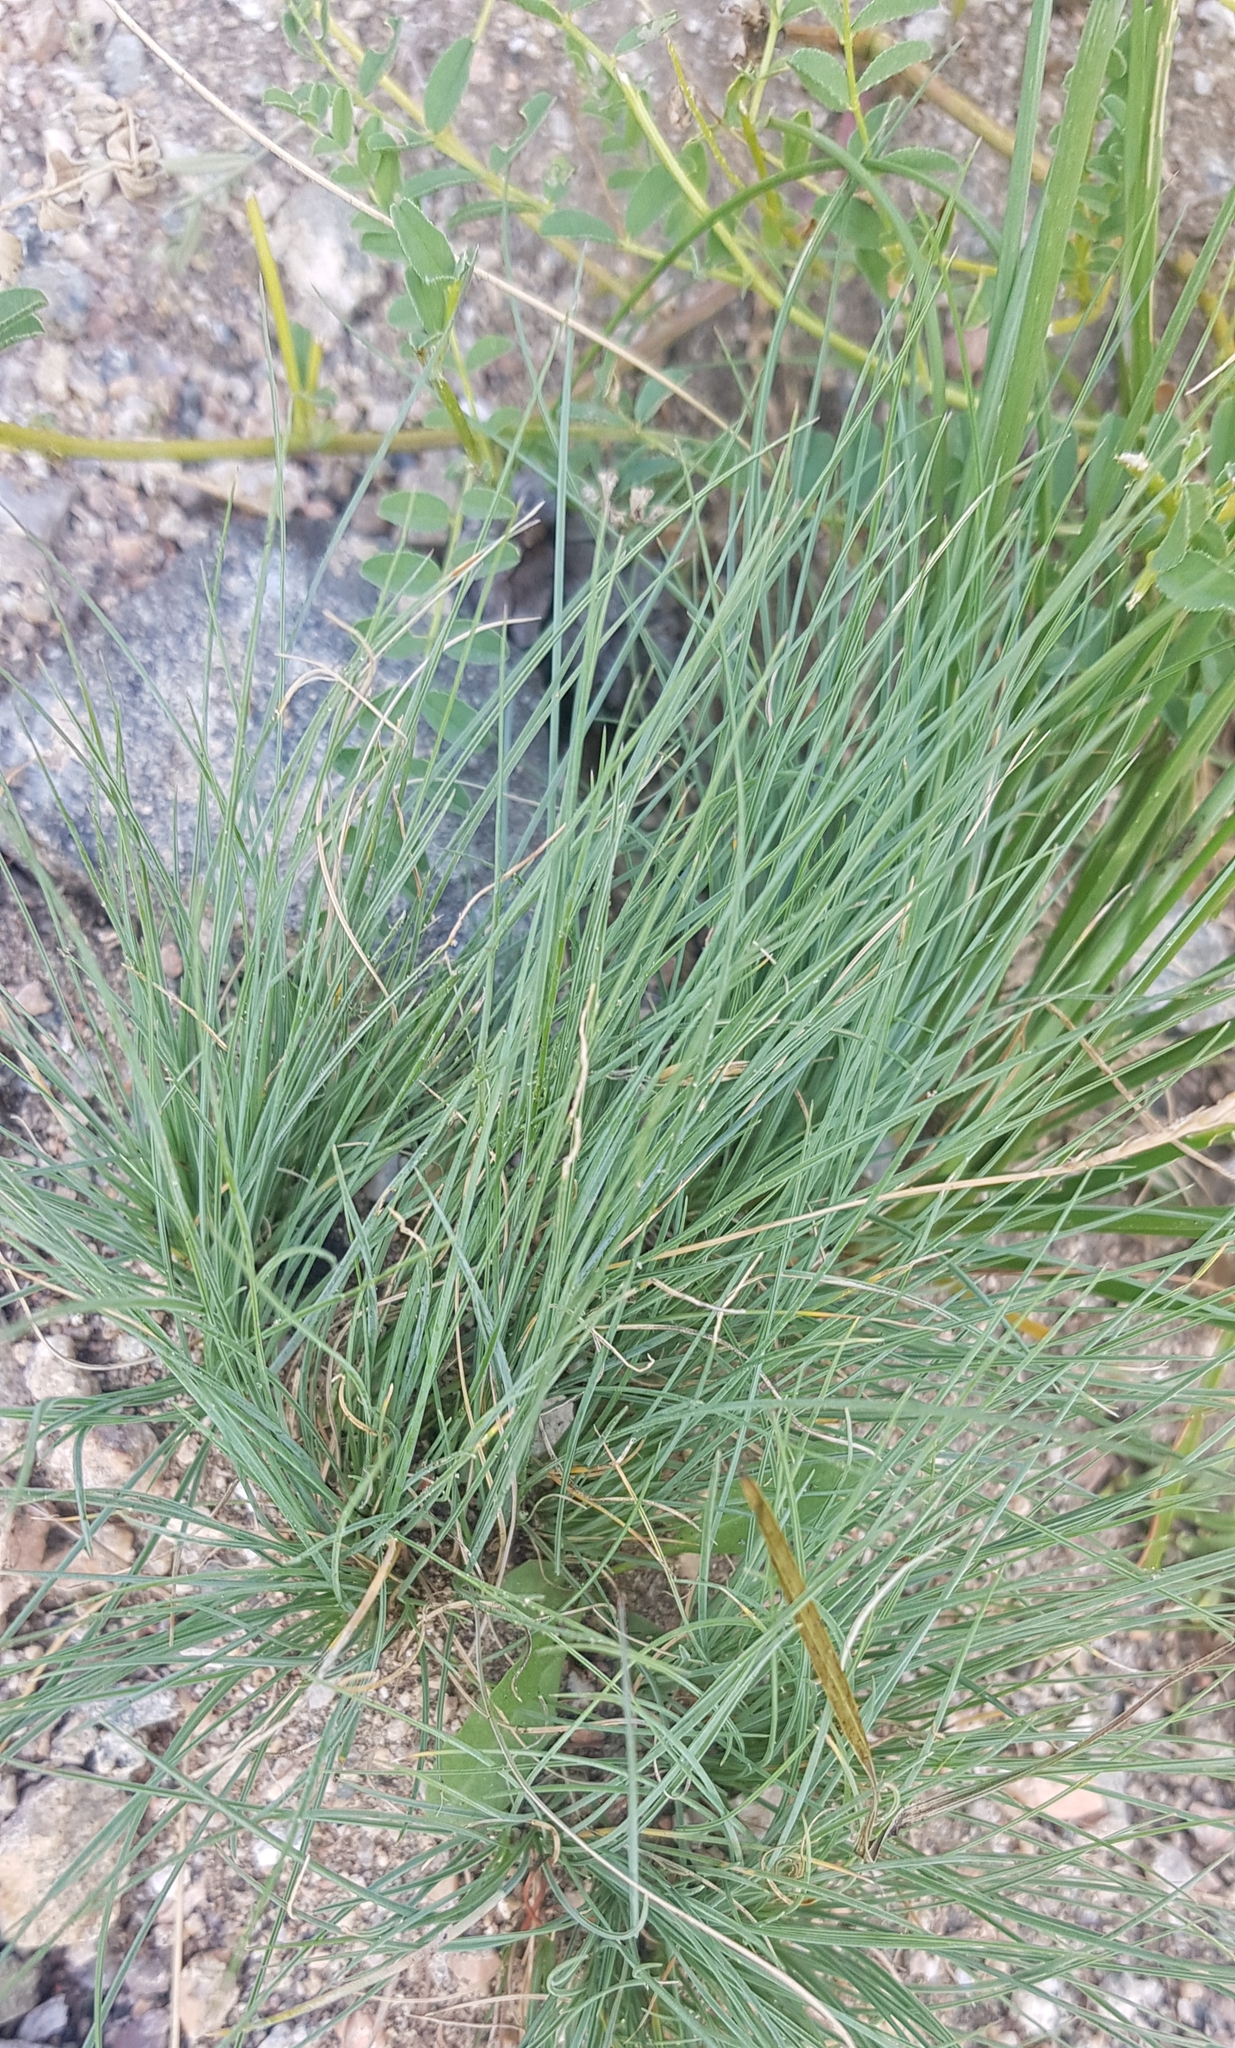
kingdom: Plantae
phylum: Tracheophyta
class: Liliopsida
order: Poales
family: Poaceae
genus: Festuca
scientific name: Festuca valesiaca
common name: Volga fescue
